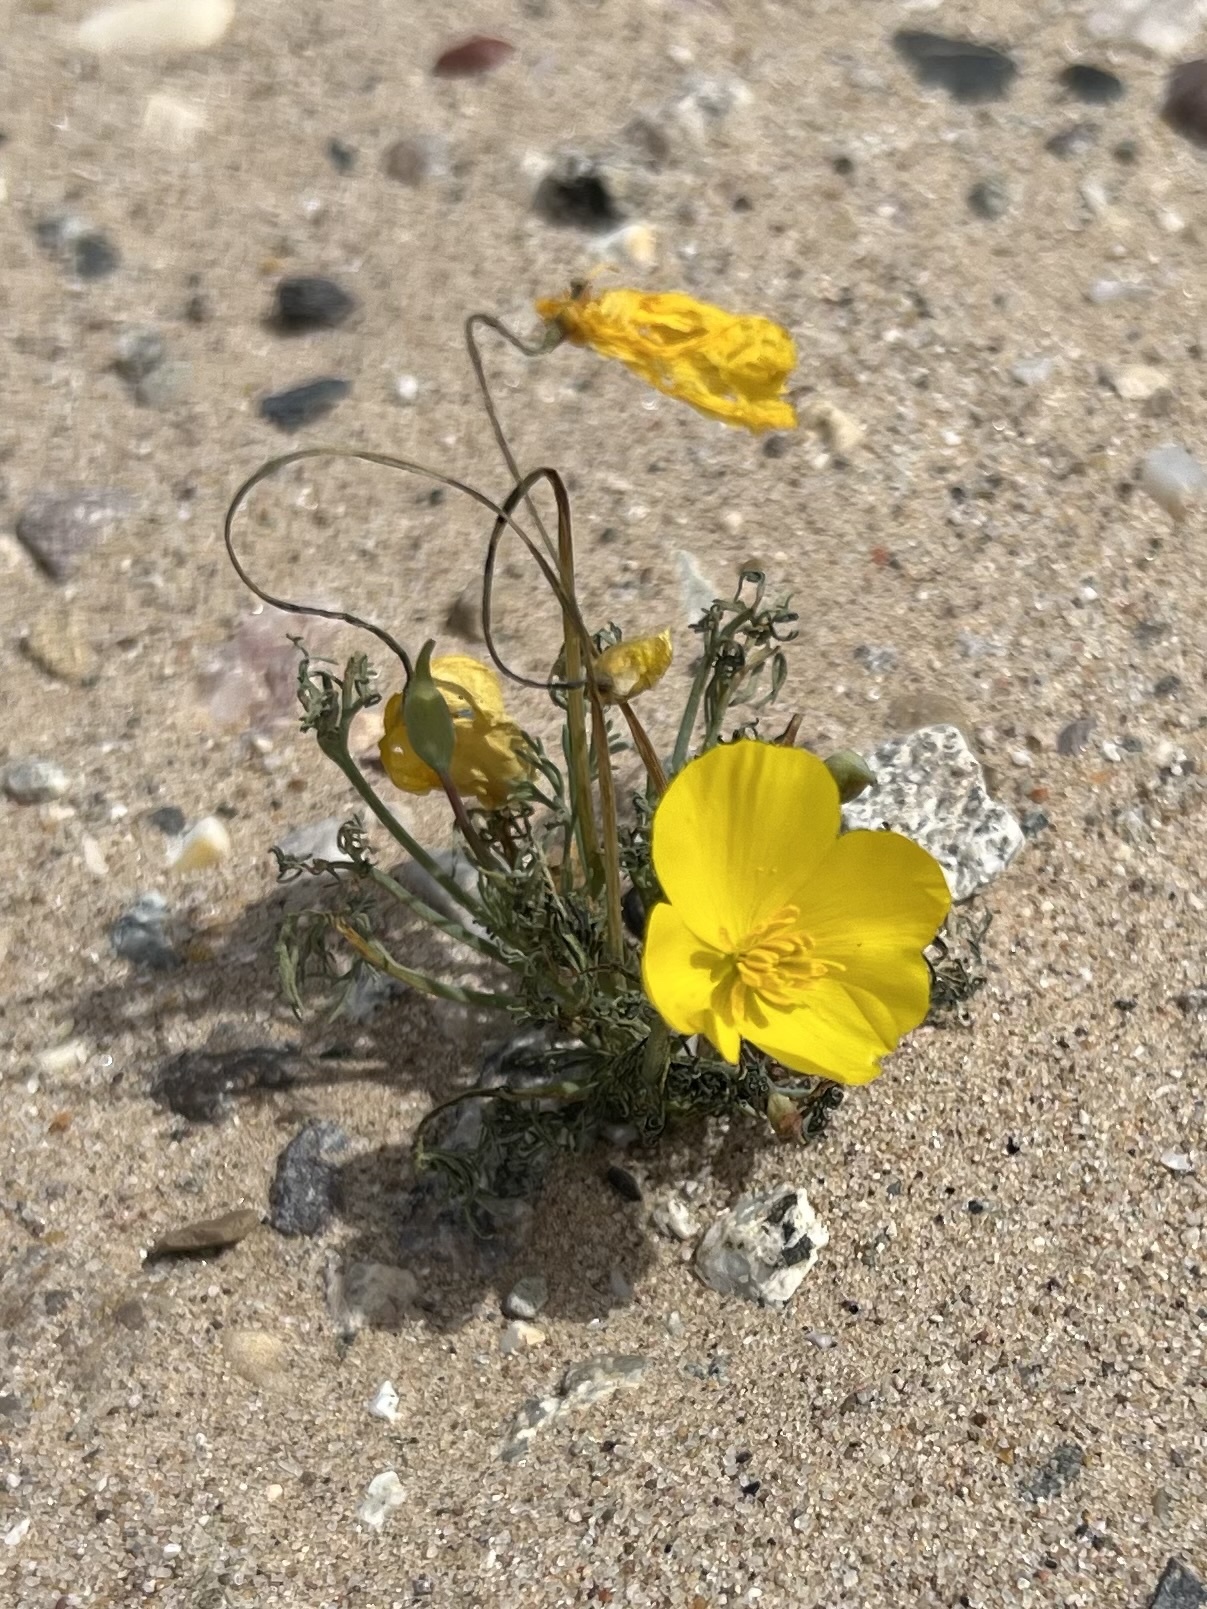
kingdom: Plantae
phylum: Tracheophyta
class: Magnoliopsida
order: Ranunculales
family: Papaveraceae
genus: Eschscholzia
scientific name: Eschscholzia glyptosperma
